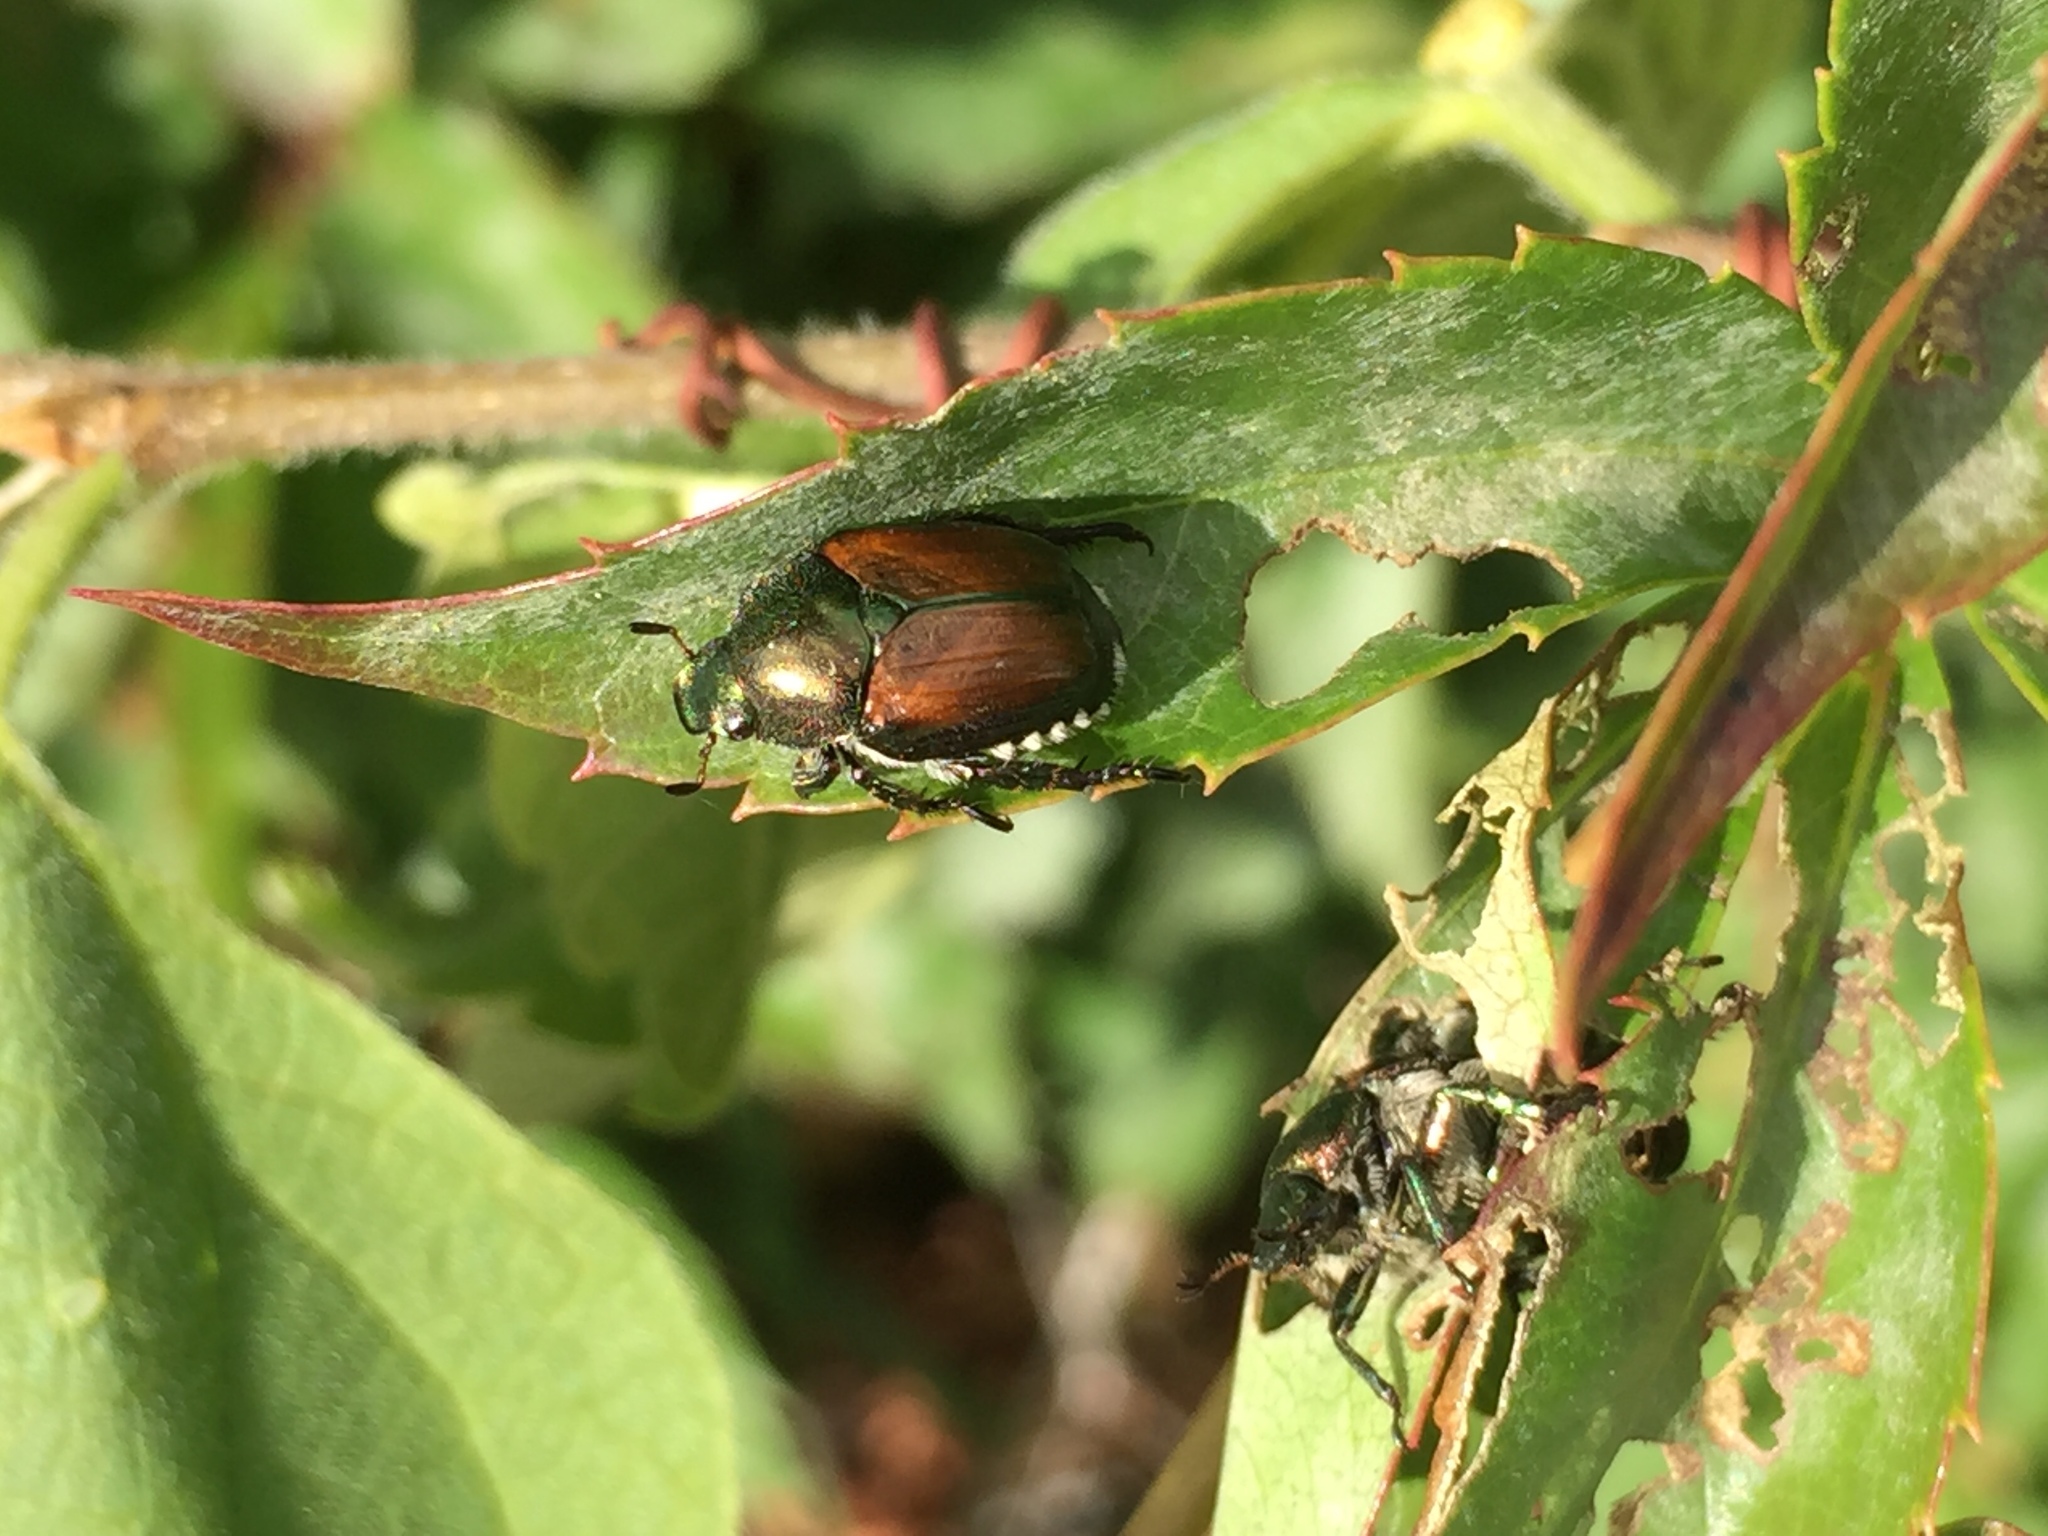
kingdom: Animalia
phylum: Arthropoda
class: Insecta
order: Coleoptera
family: Scarabaeidae
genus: Popillia
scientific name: Popillia japonica
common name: Japanese beetle
